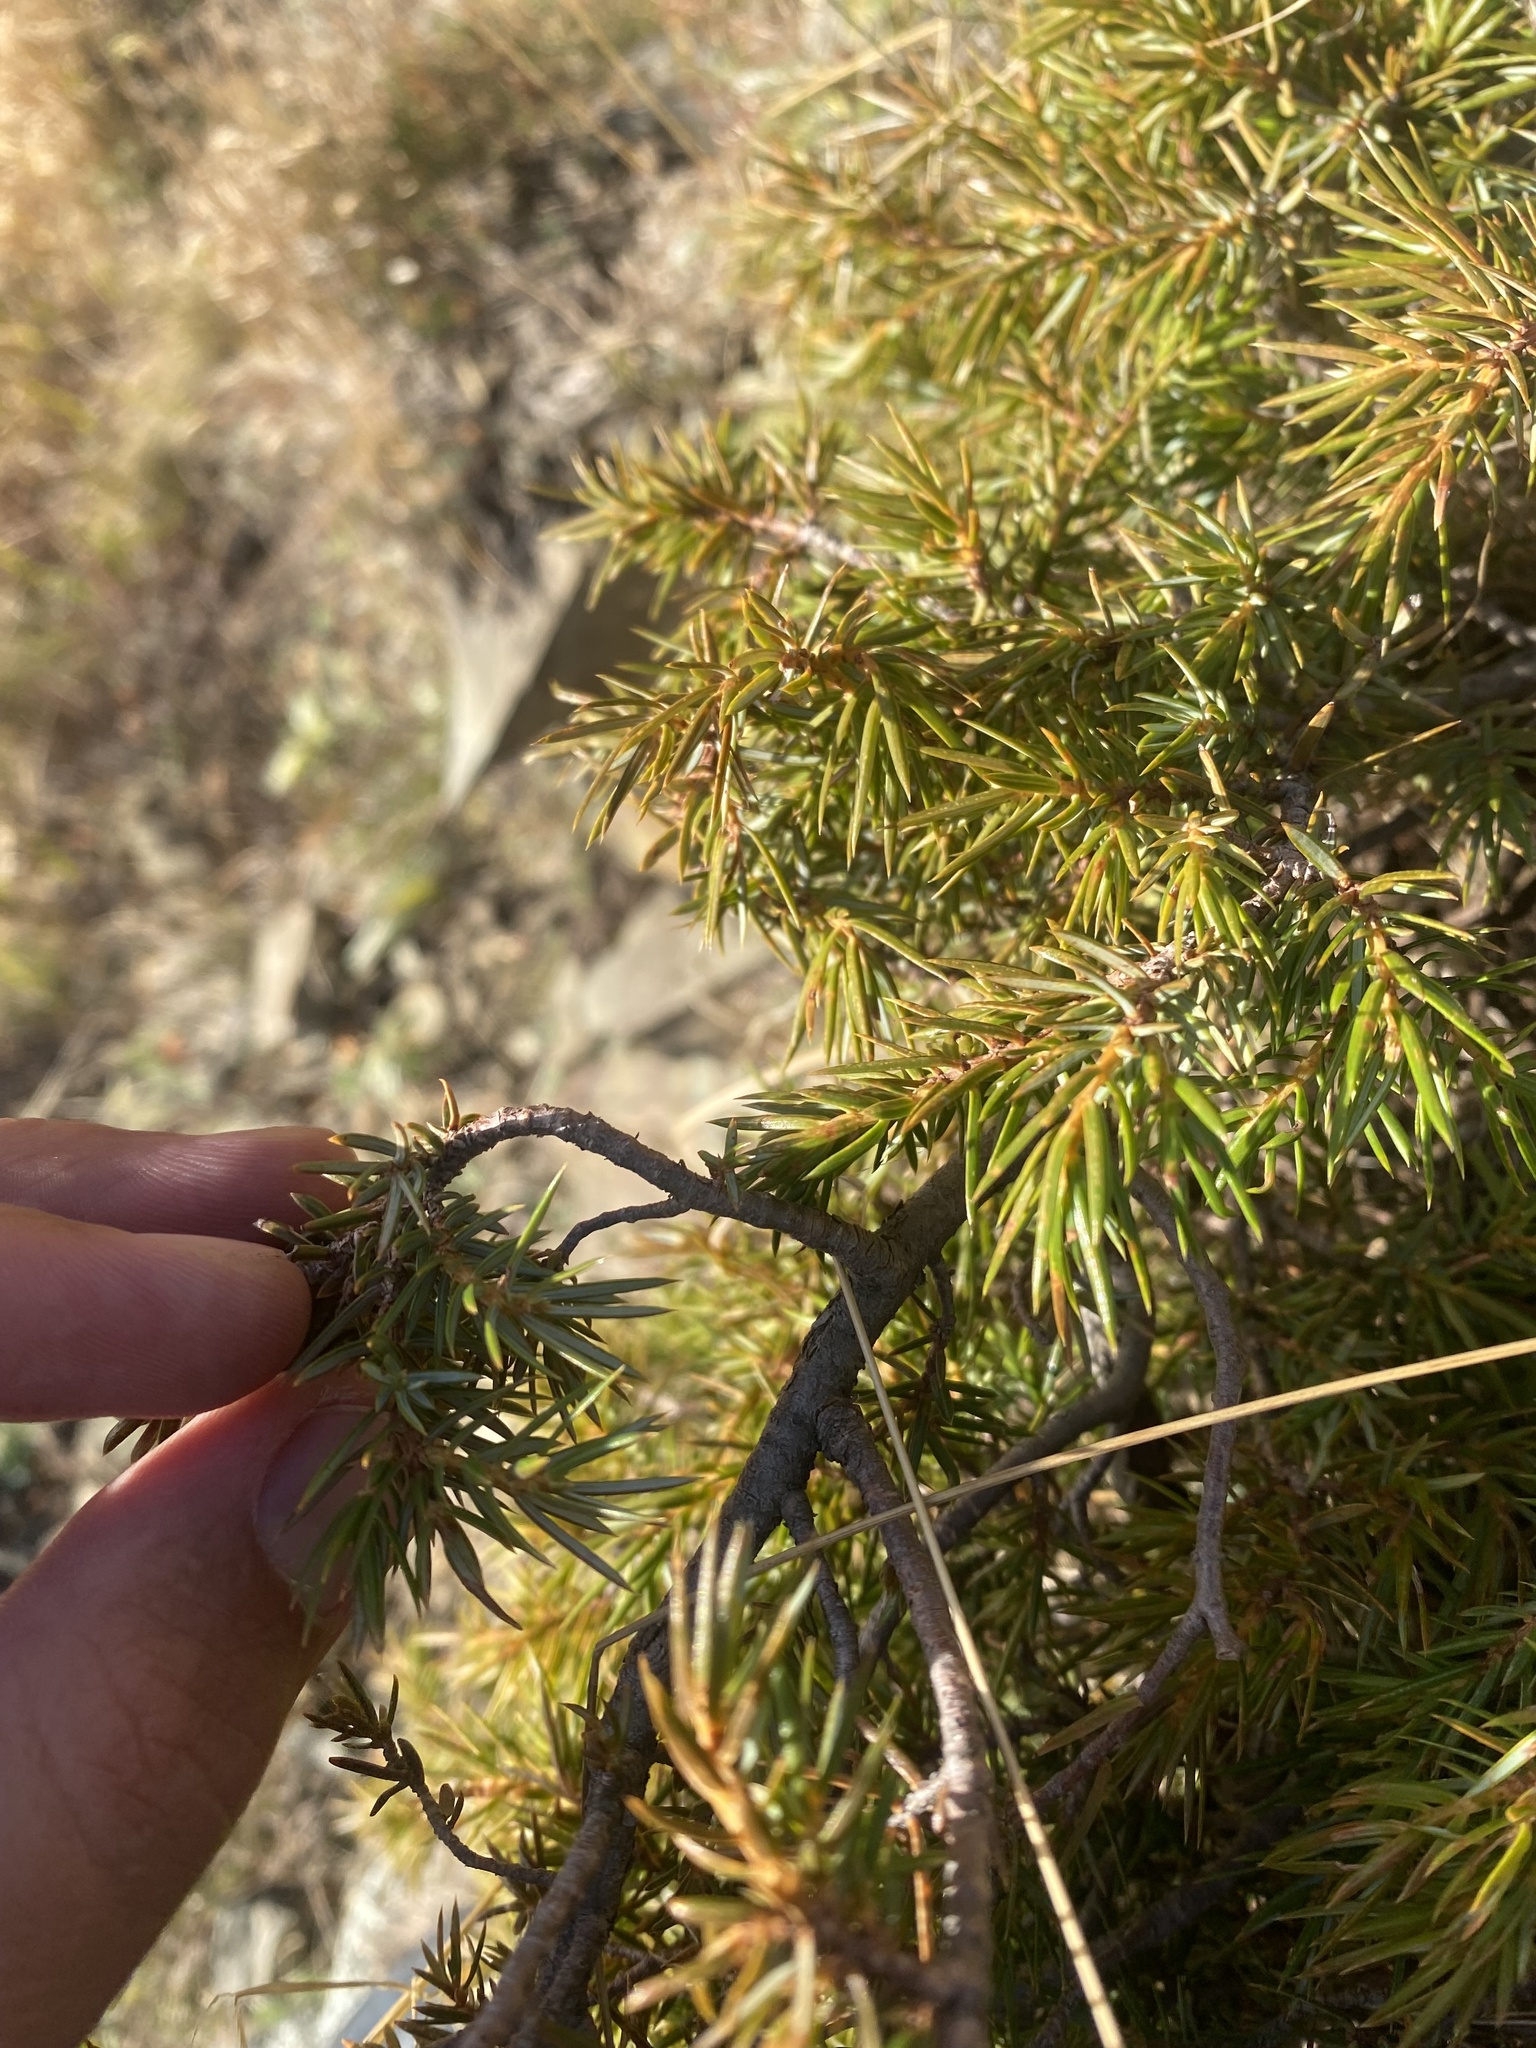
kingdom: Plantae
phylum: Tracheophyta
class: Pinopsida
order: Pinales
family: Cupressaceae
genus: Juniperus
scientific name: Juniperus communis
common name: Common juniper
